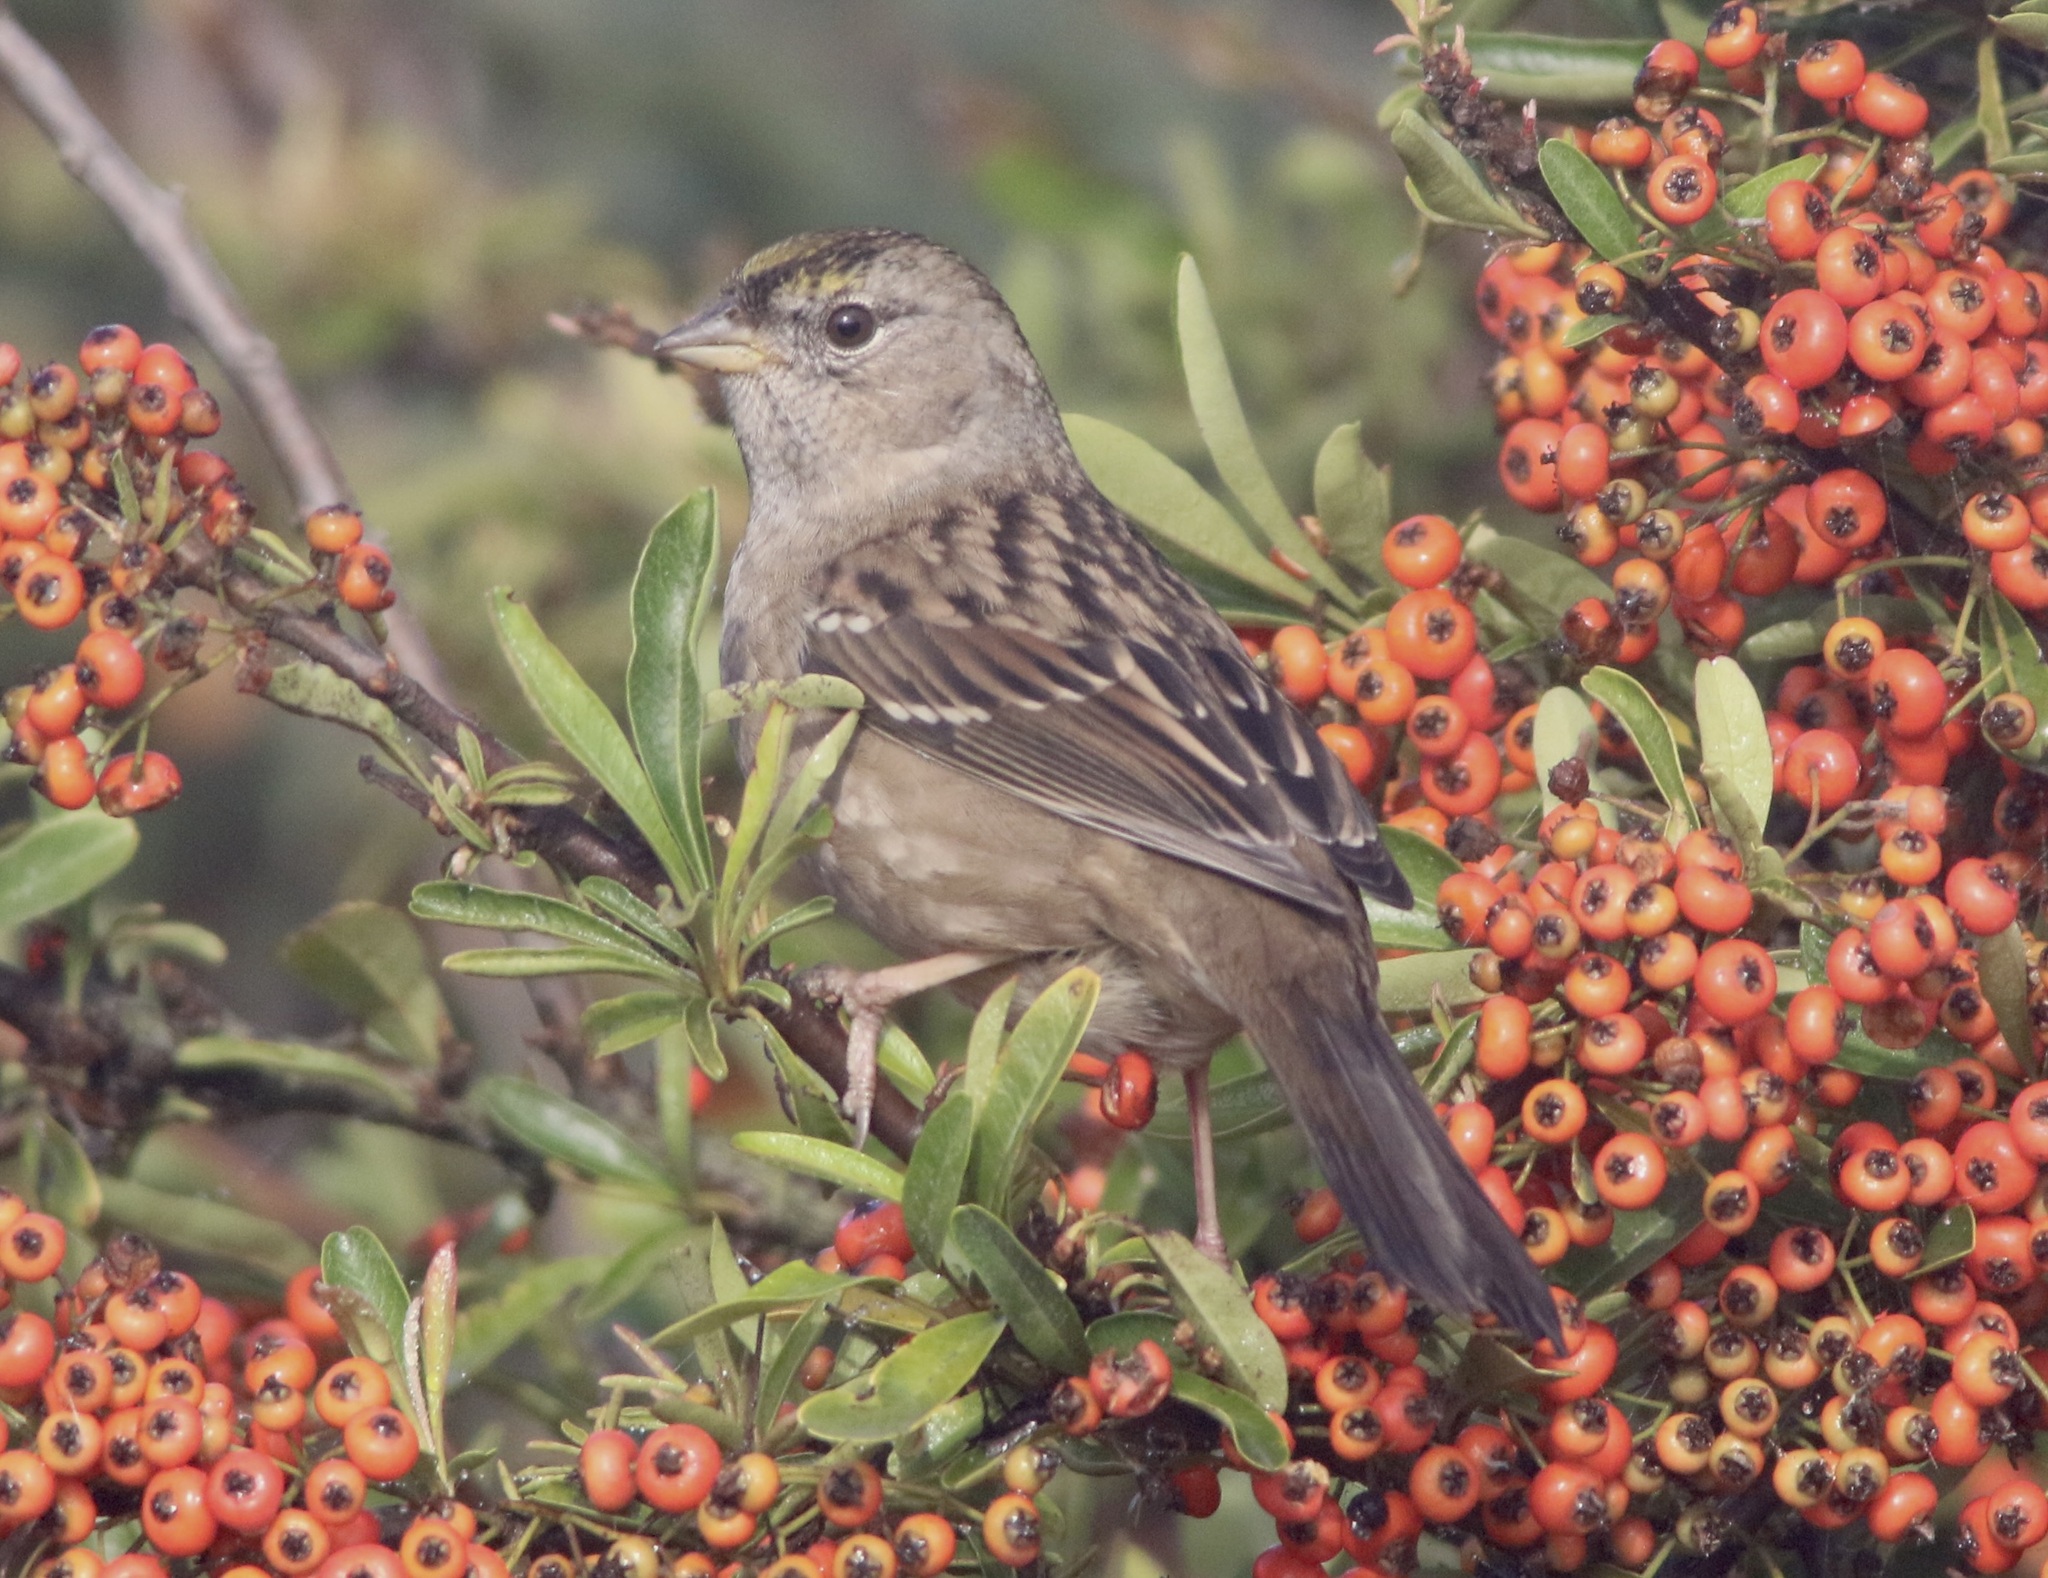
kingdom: Animalia
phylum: Chordata
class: Aves
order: Passeriformes
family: Passerellidae
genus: Zonotrichia
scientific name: Zonotrichia atricapilla
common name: Golden-crowned sparrow
